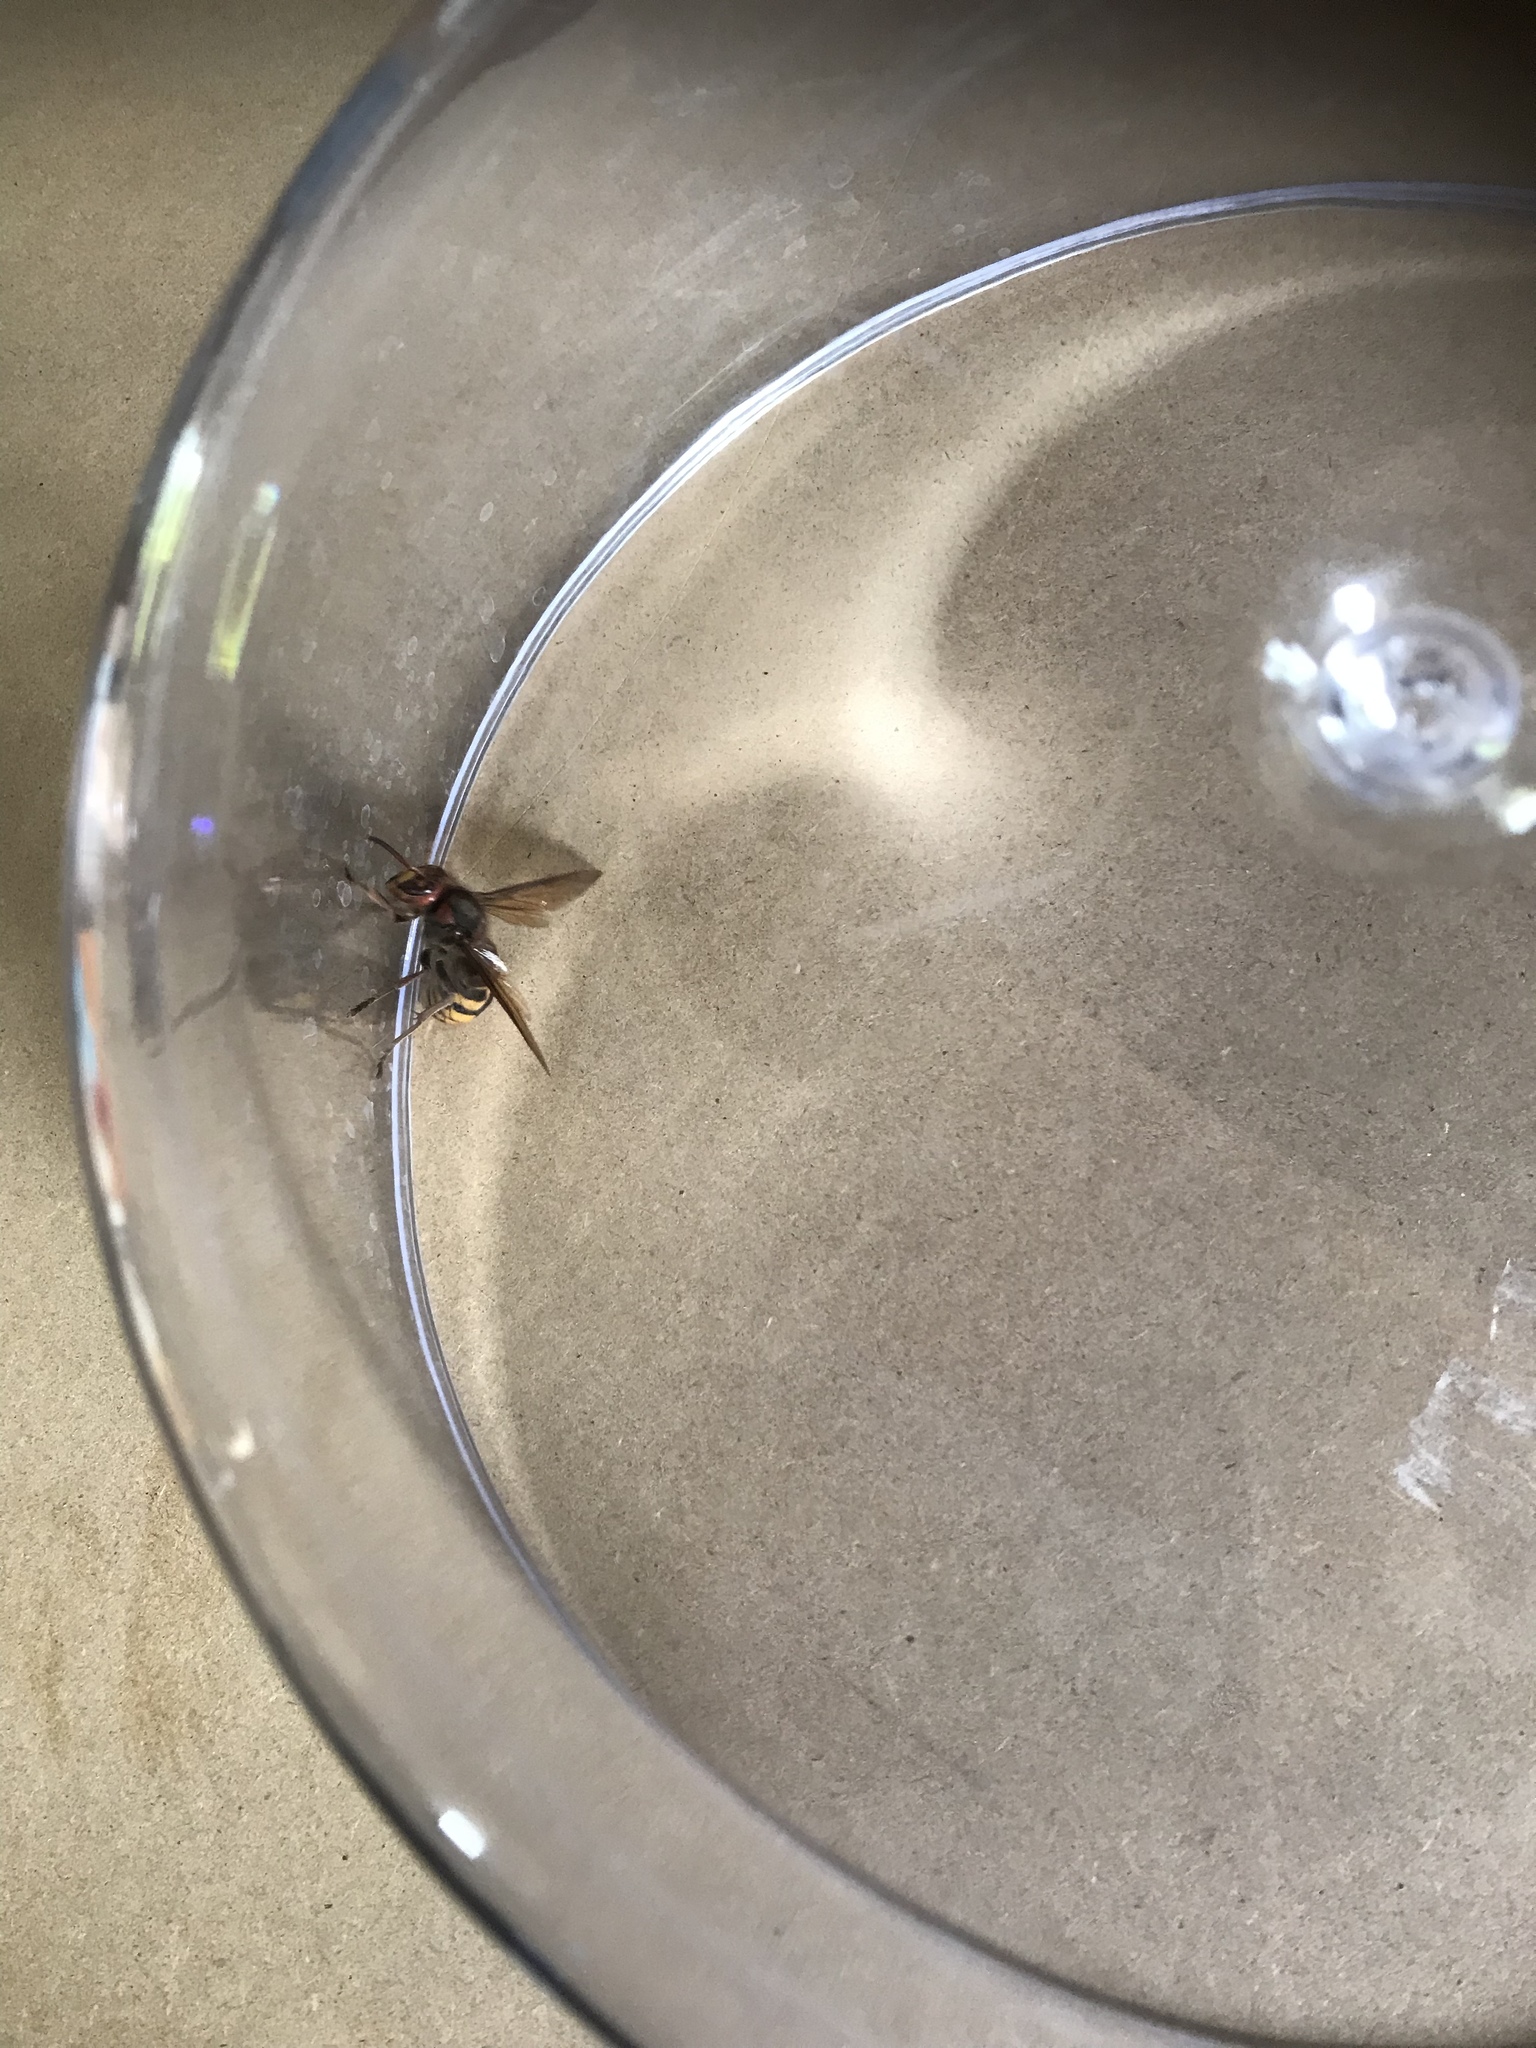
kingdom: Animalia
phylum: Arthropoda
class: Insecta
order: Hymenoptera
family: Vespidae
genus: Vespa
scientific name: Vespa crabro
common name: Hornet
